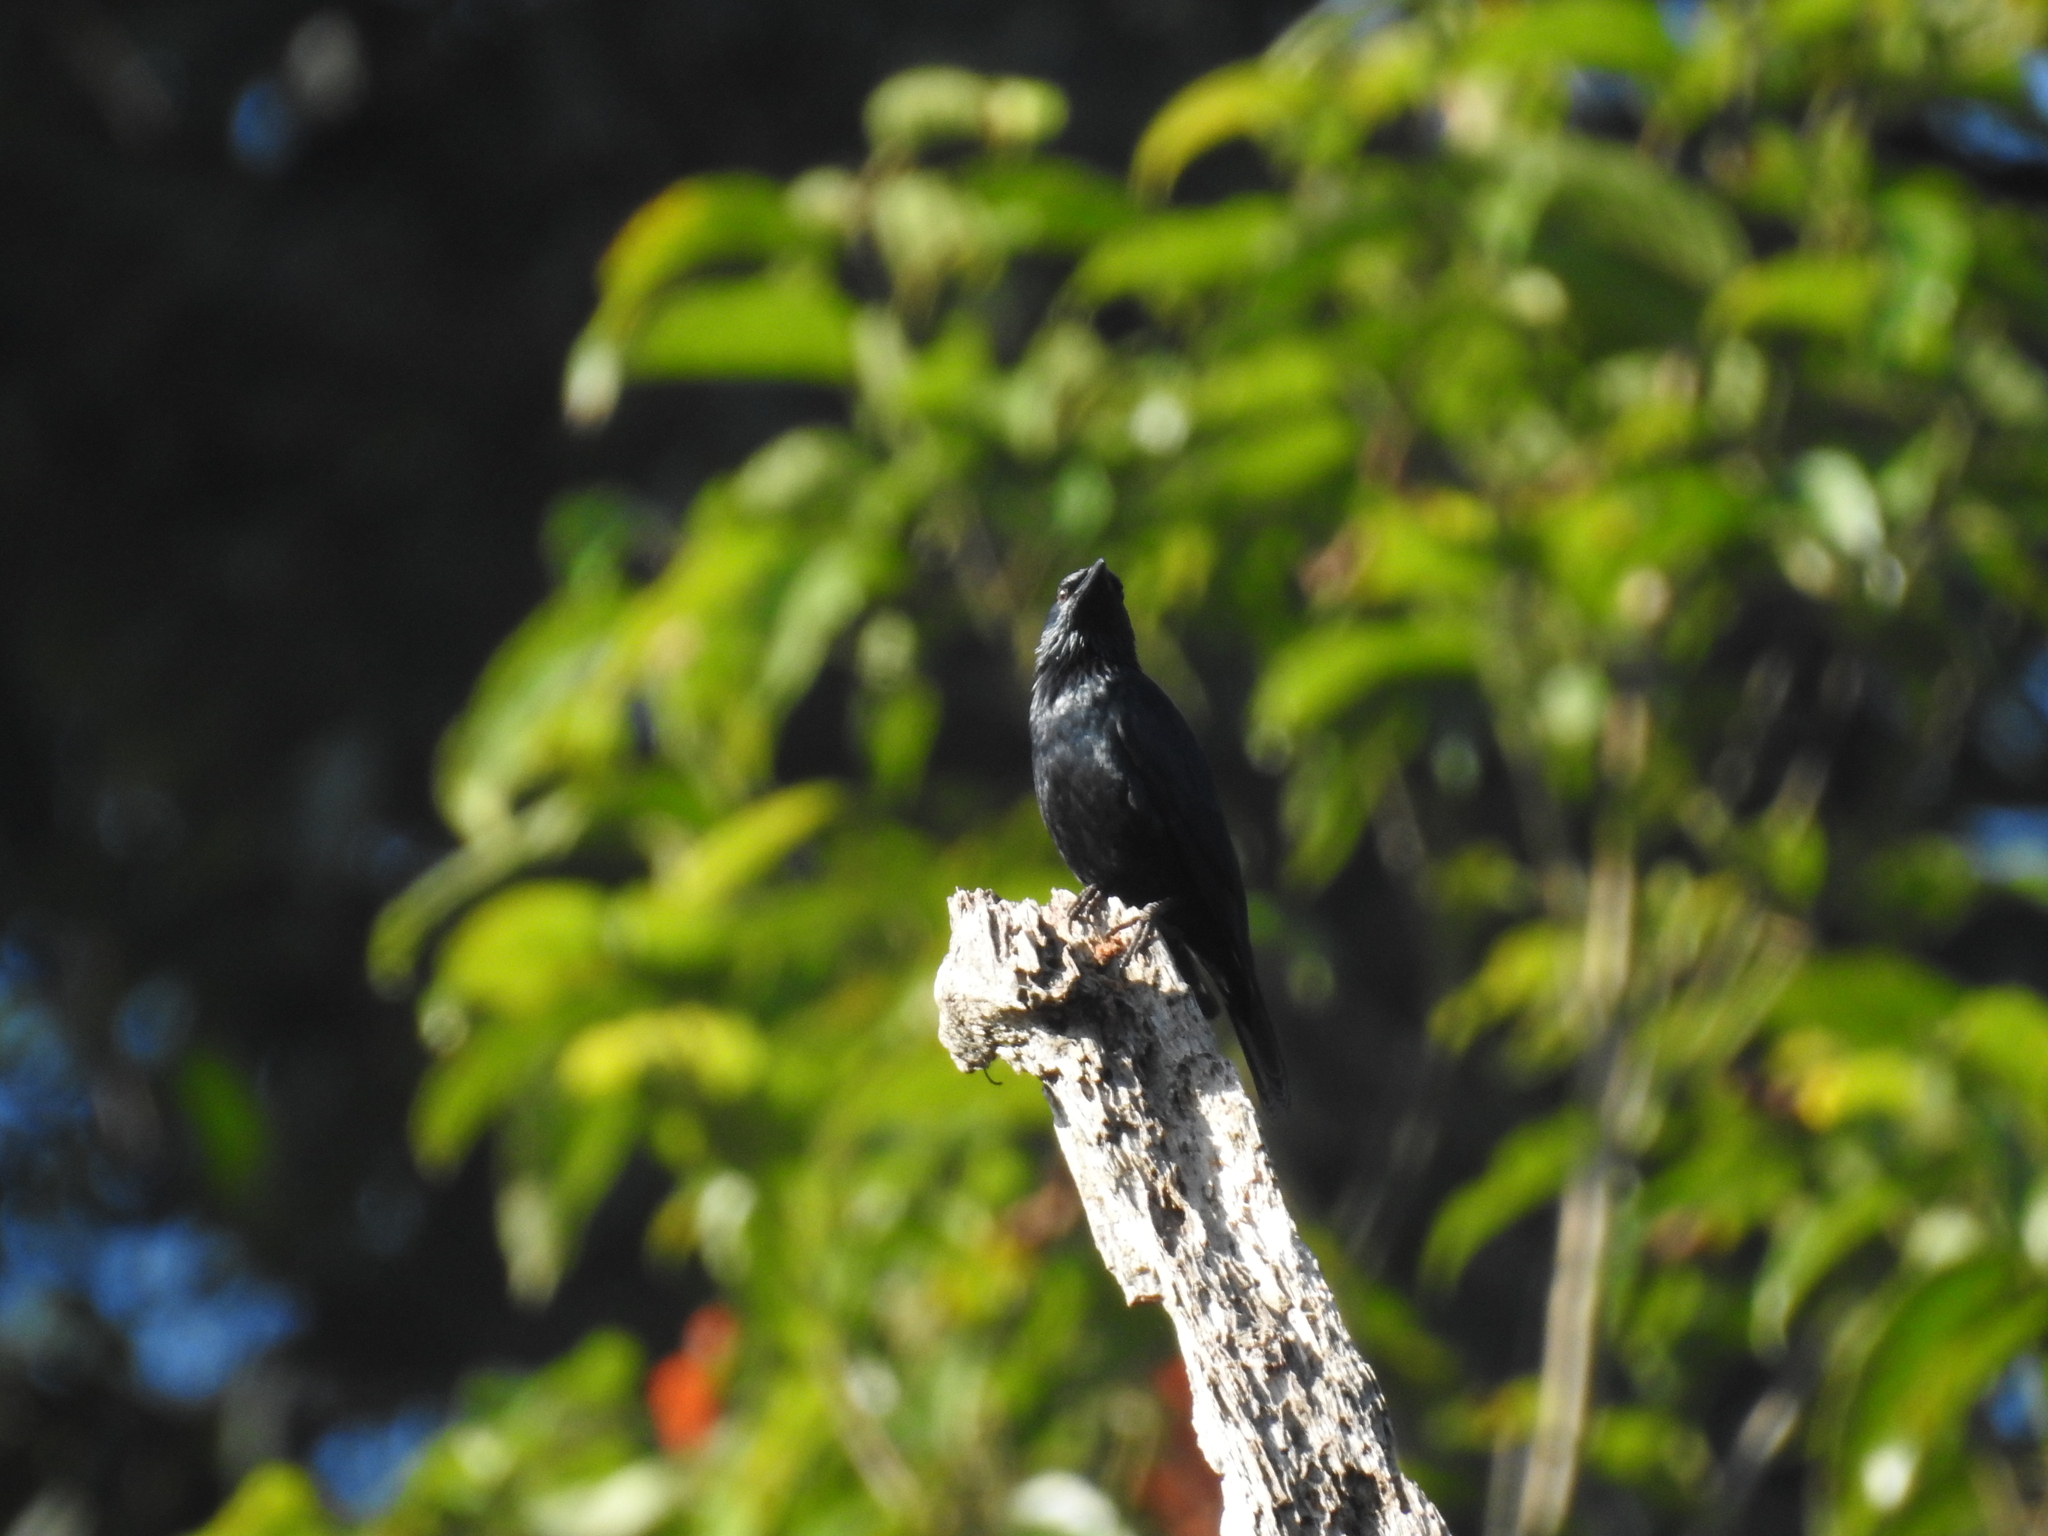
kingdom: Animalia
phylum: Chordata
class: Aves
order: Passeriformes
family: Sturnidae
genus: Aplonis
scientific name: Aplonis panayensis
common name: Asian glossy starling
